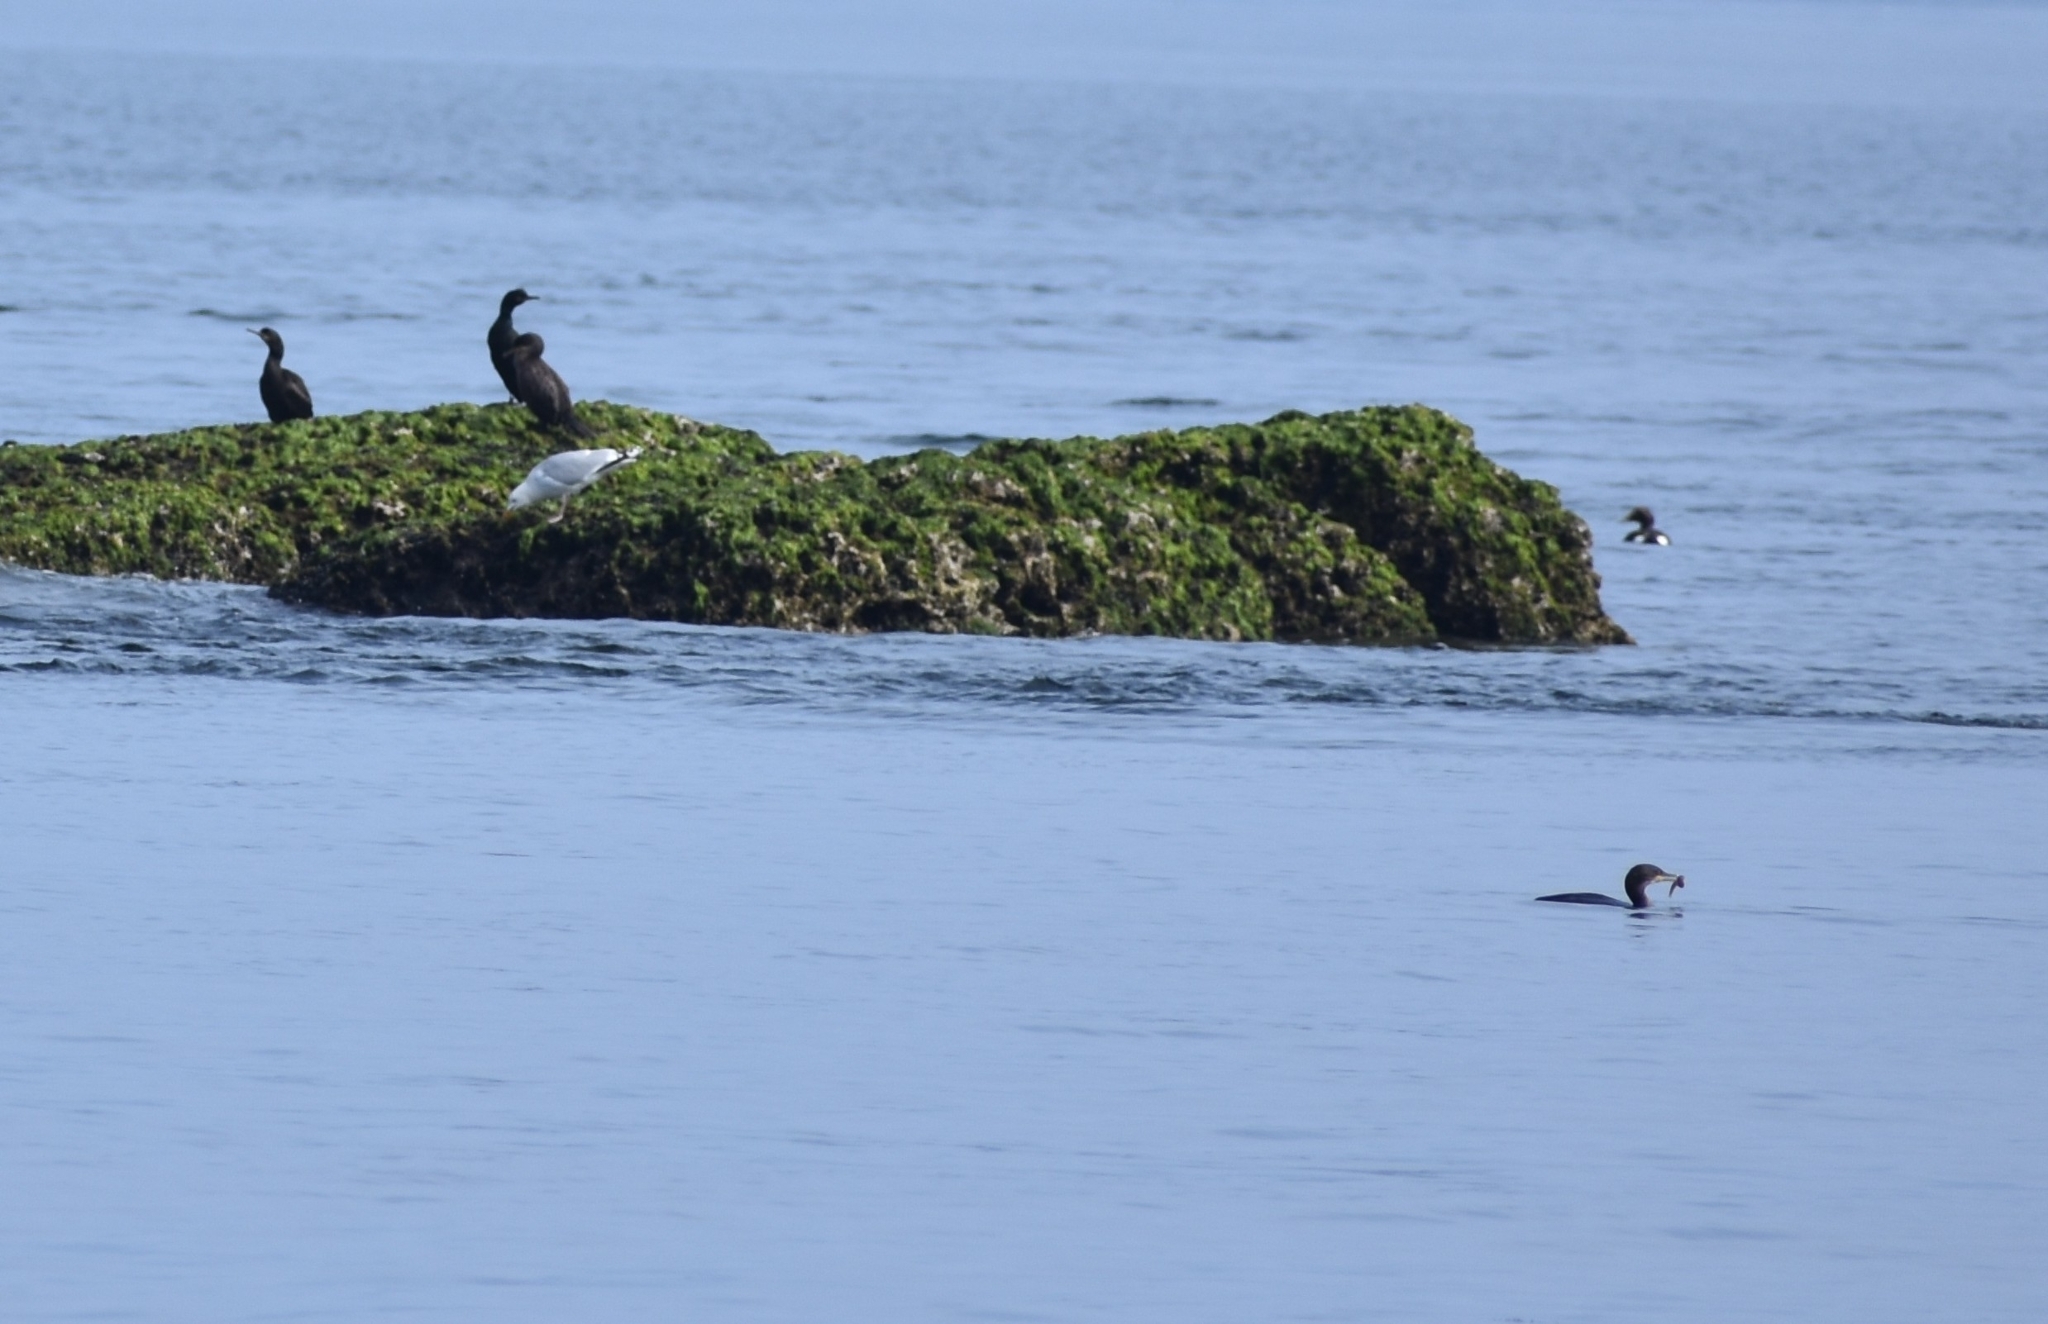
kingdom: Animalia
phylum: Chordata
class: Aves
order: Suliformes
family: Phalacrocoracidae
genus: Phalacrocorax
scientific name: Phalacrocorax carbo
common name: Great cormorant
